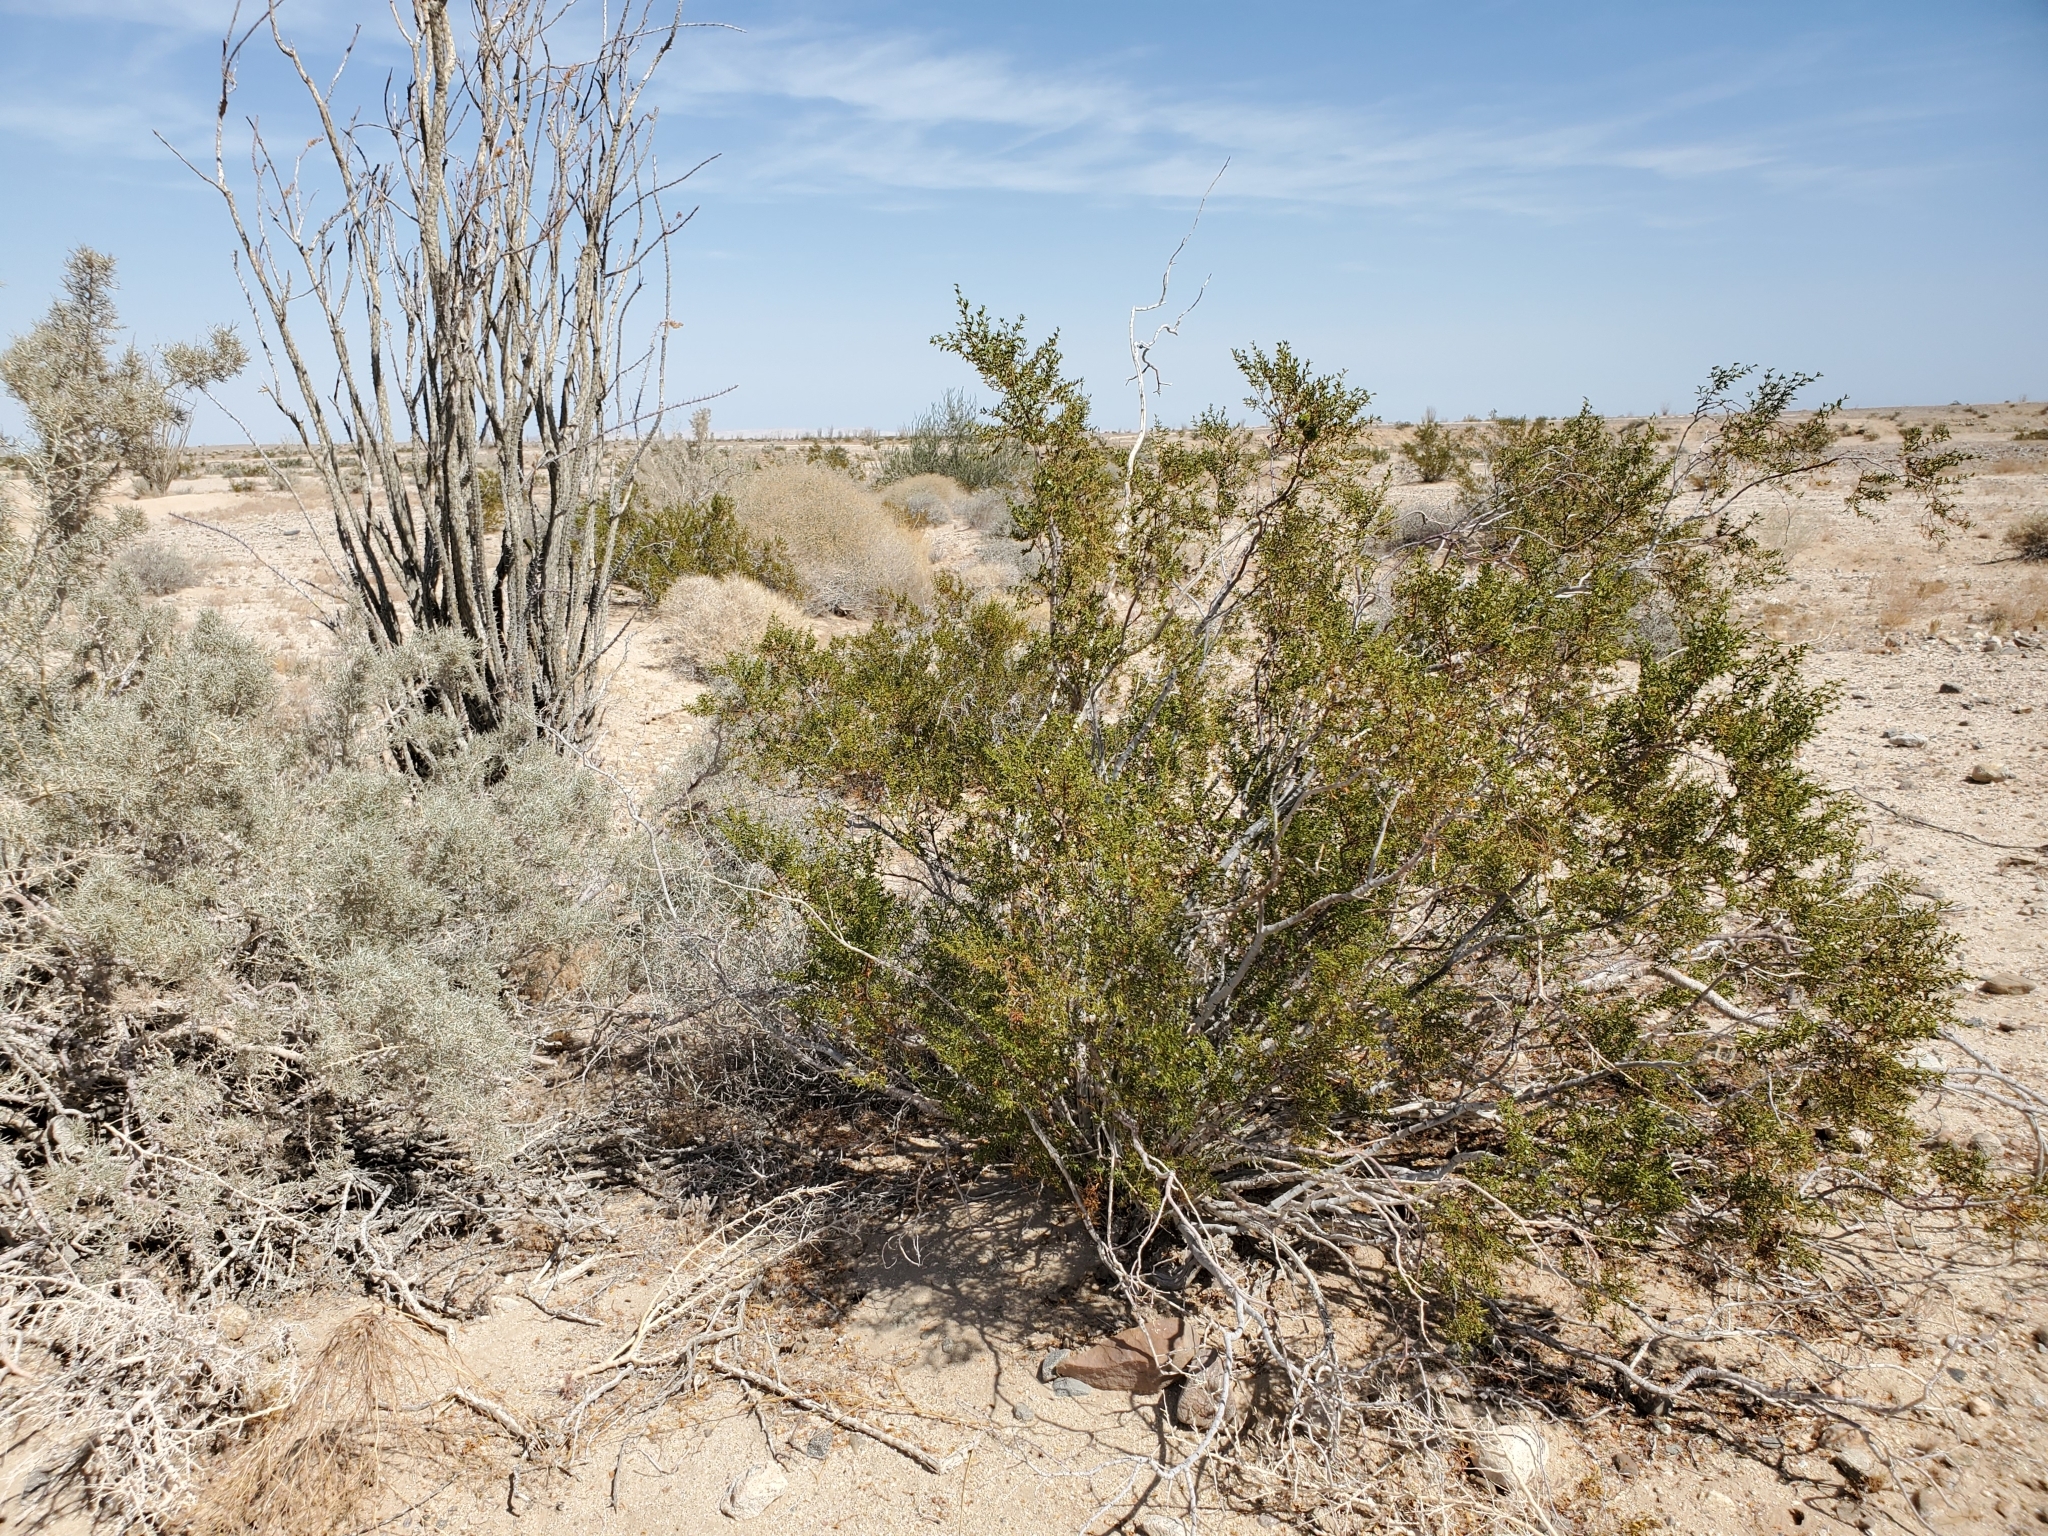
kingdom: Plantae
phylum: Tracheophyta
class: Magnoliopsida
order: Ericales
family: Fouquieriaceae
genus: Fouquieria
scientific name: Fouquieria splendens
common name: Vine-cactus
